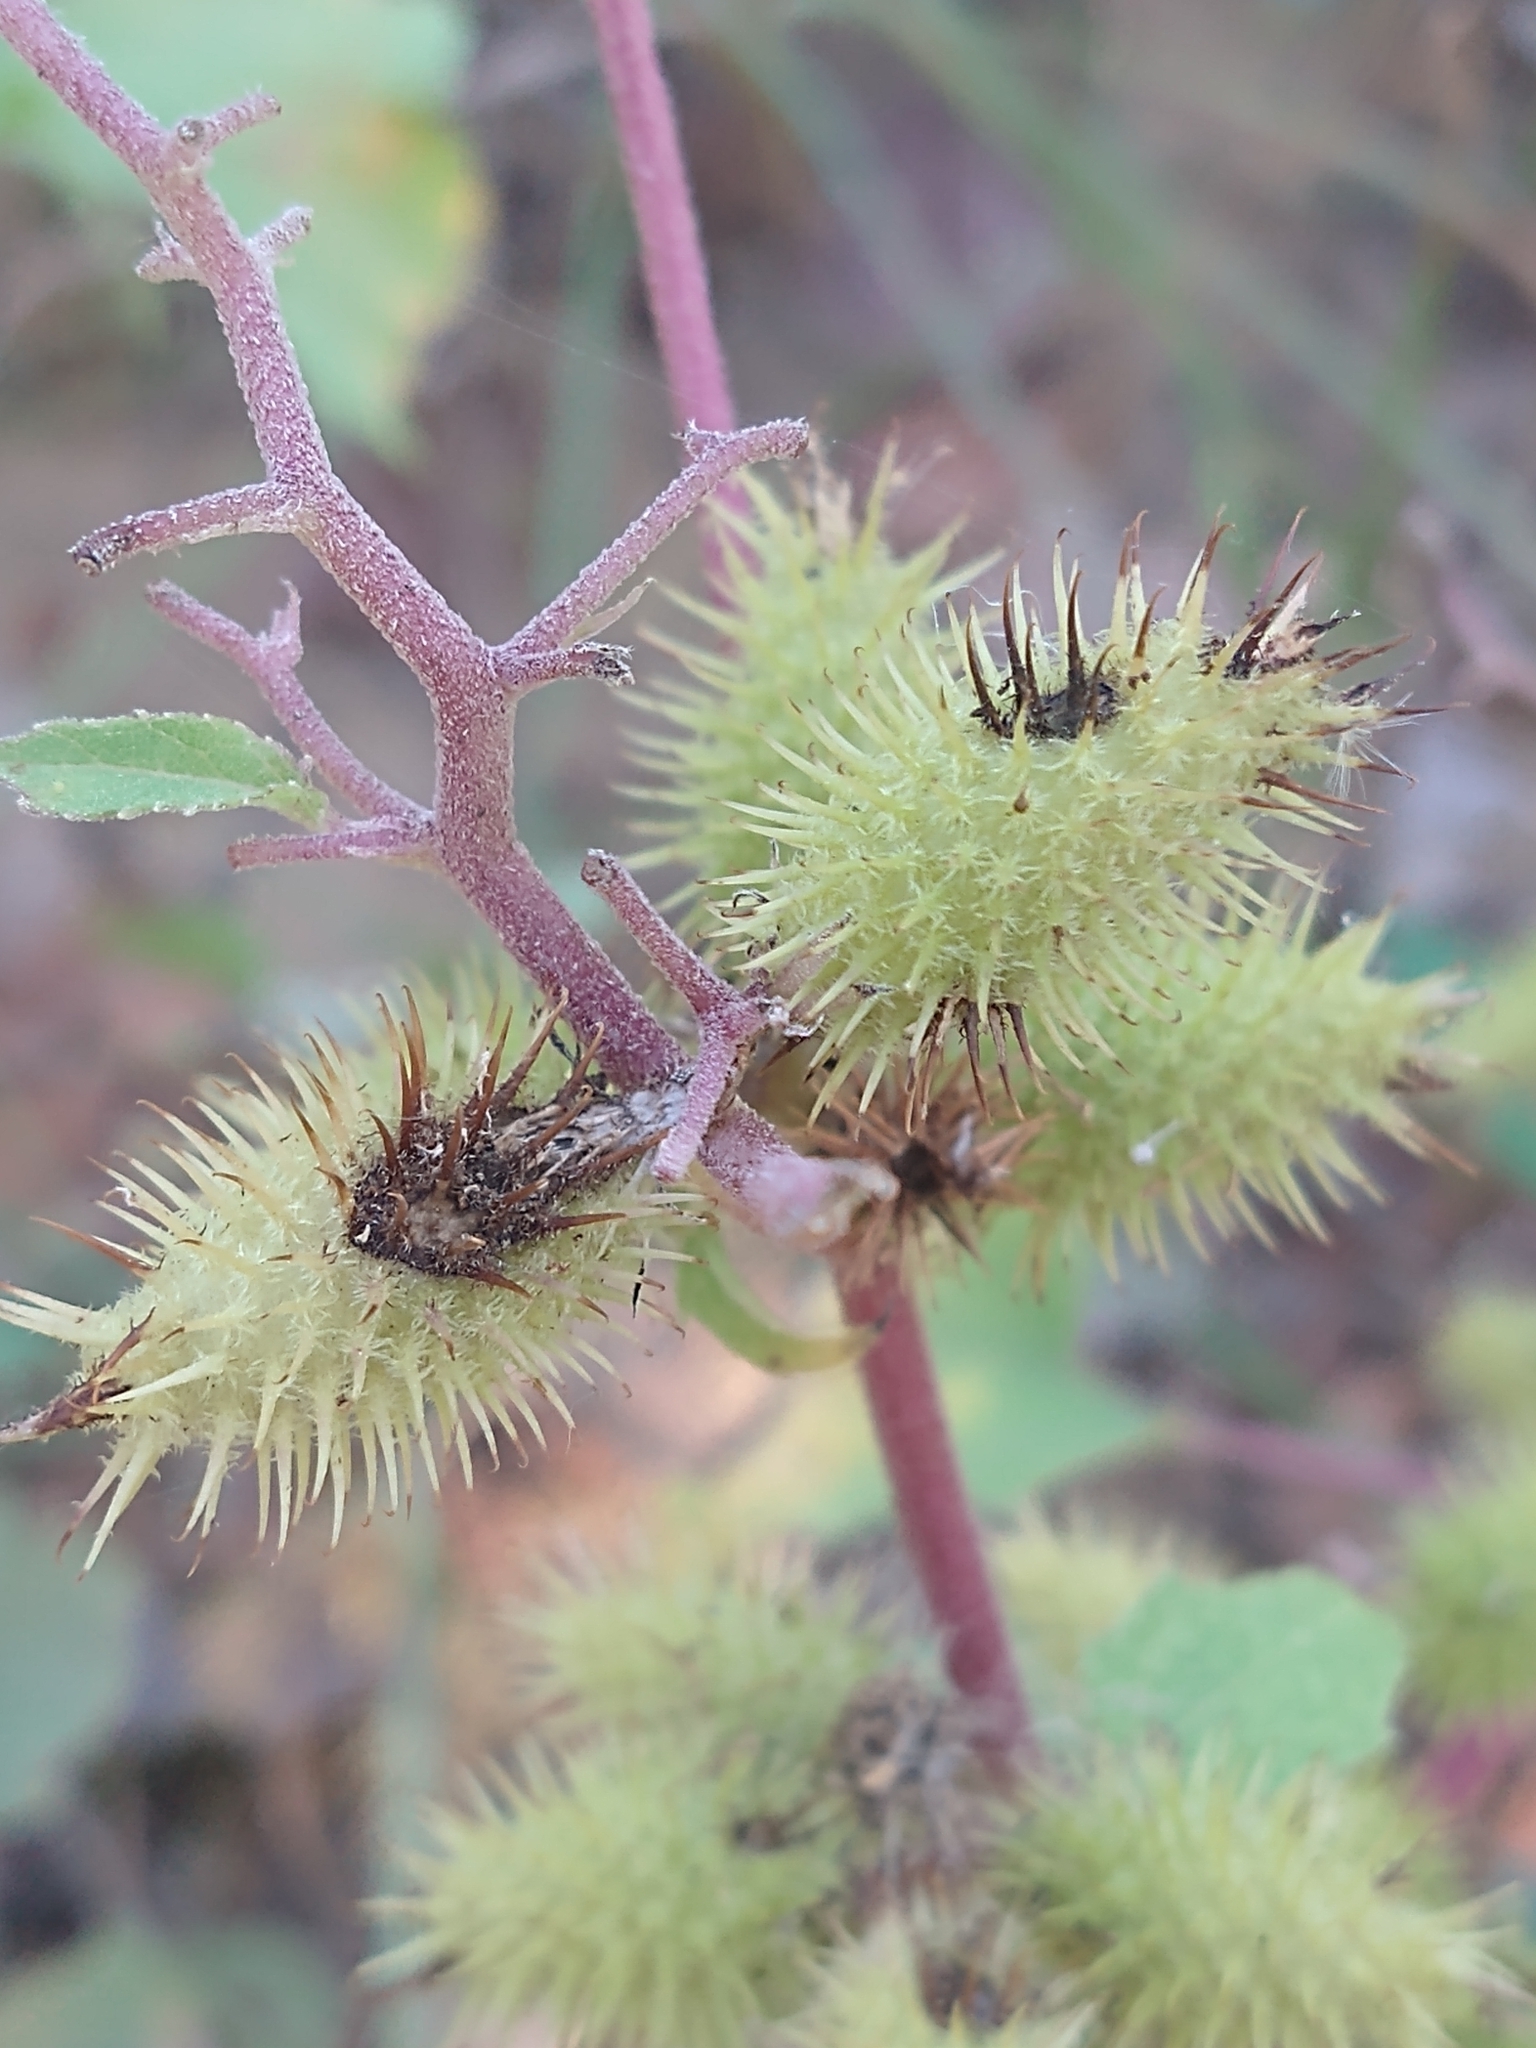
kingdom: Plantae
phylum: Tracheophyta
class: Magnoliopsida
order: Asterales
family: Asteraceae
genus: Xanthium
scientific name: Xanthium strumarium
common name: Rough cocklebur
